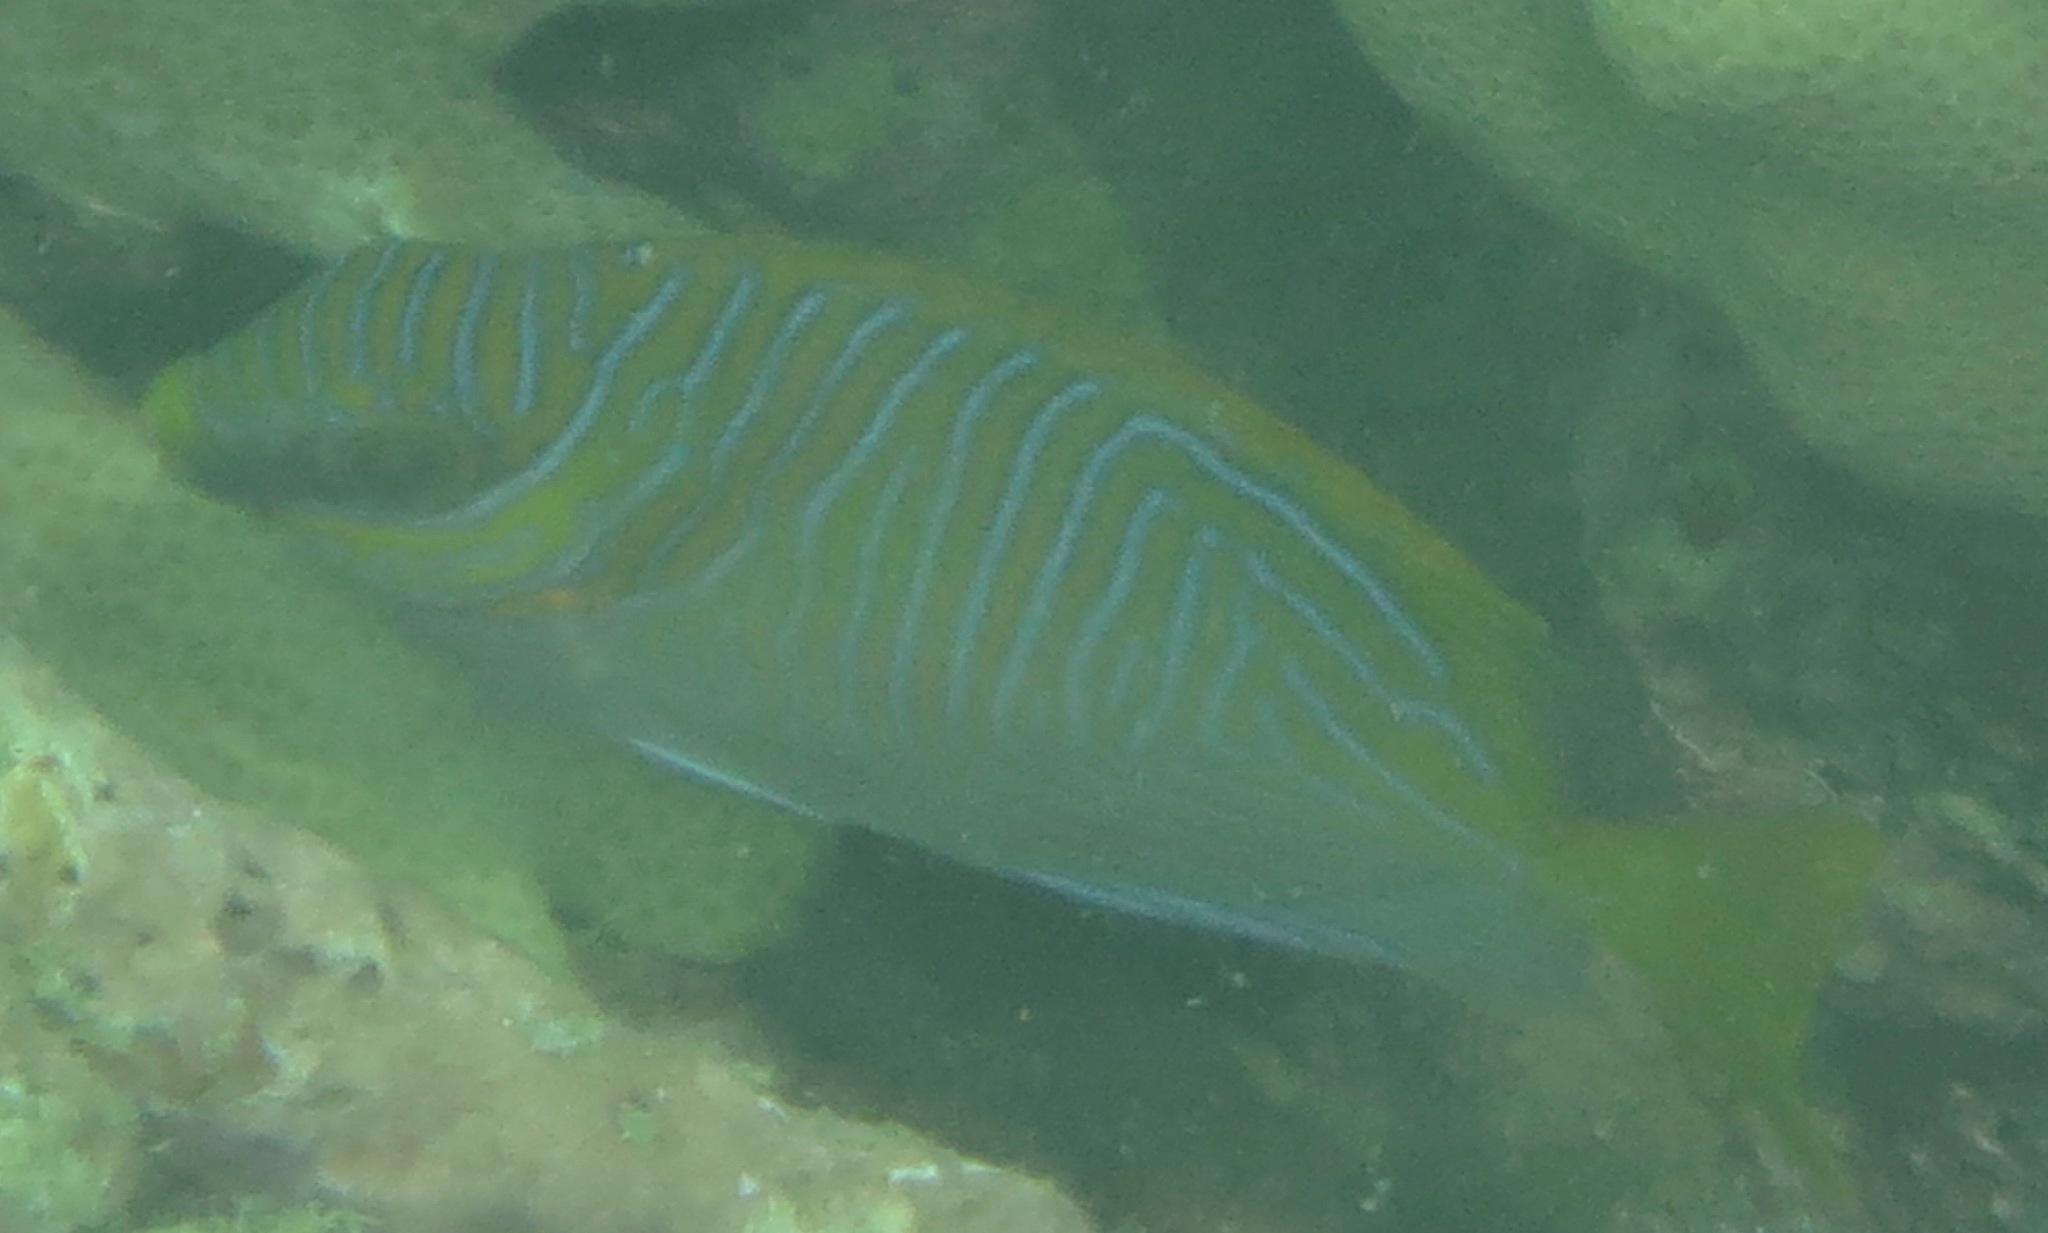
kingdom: Animalia
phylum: Chordata
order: Perciformes
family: Siganidae
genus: Siganus
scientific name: Siganus doliatus
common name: Barred spinefoot
